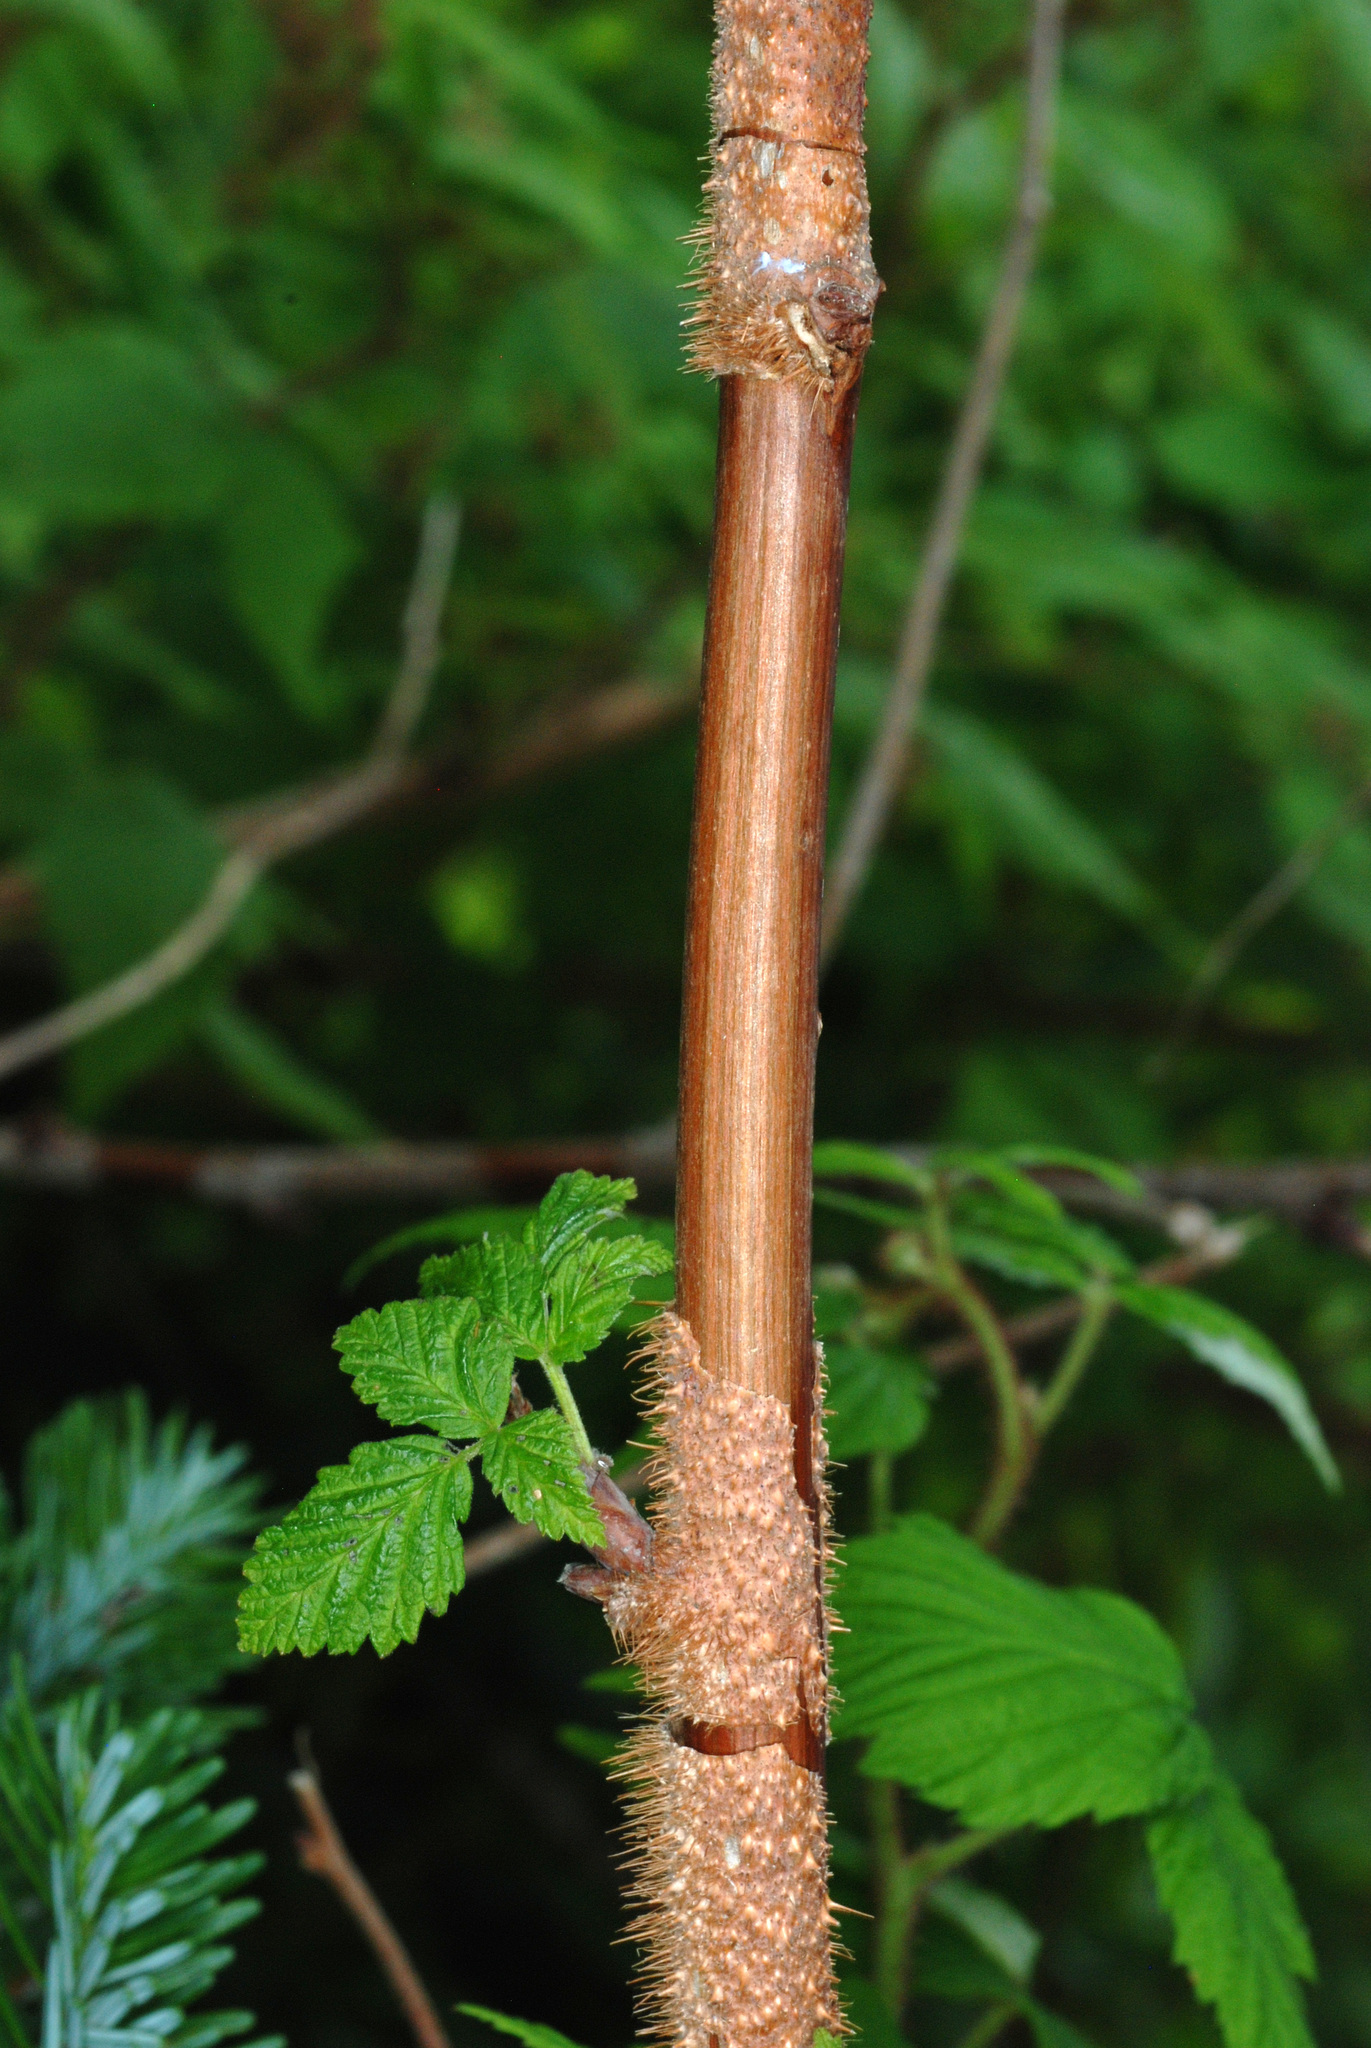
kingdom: Plantae
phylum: Tracheophyta
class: Magnoliopsida
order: Rosales
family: Rosaceae
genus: Rubus
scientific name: Rubus idaeus
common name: Raspberry
